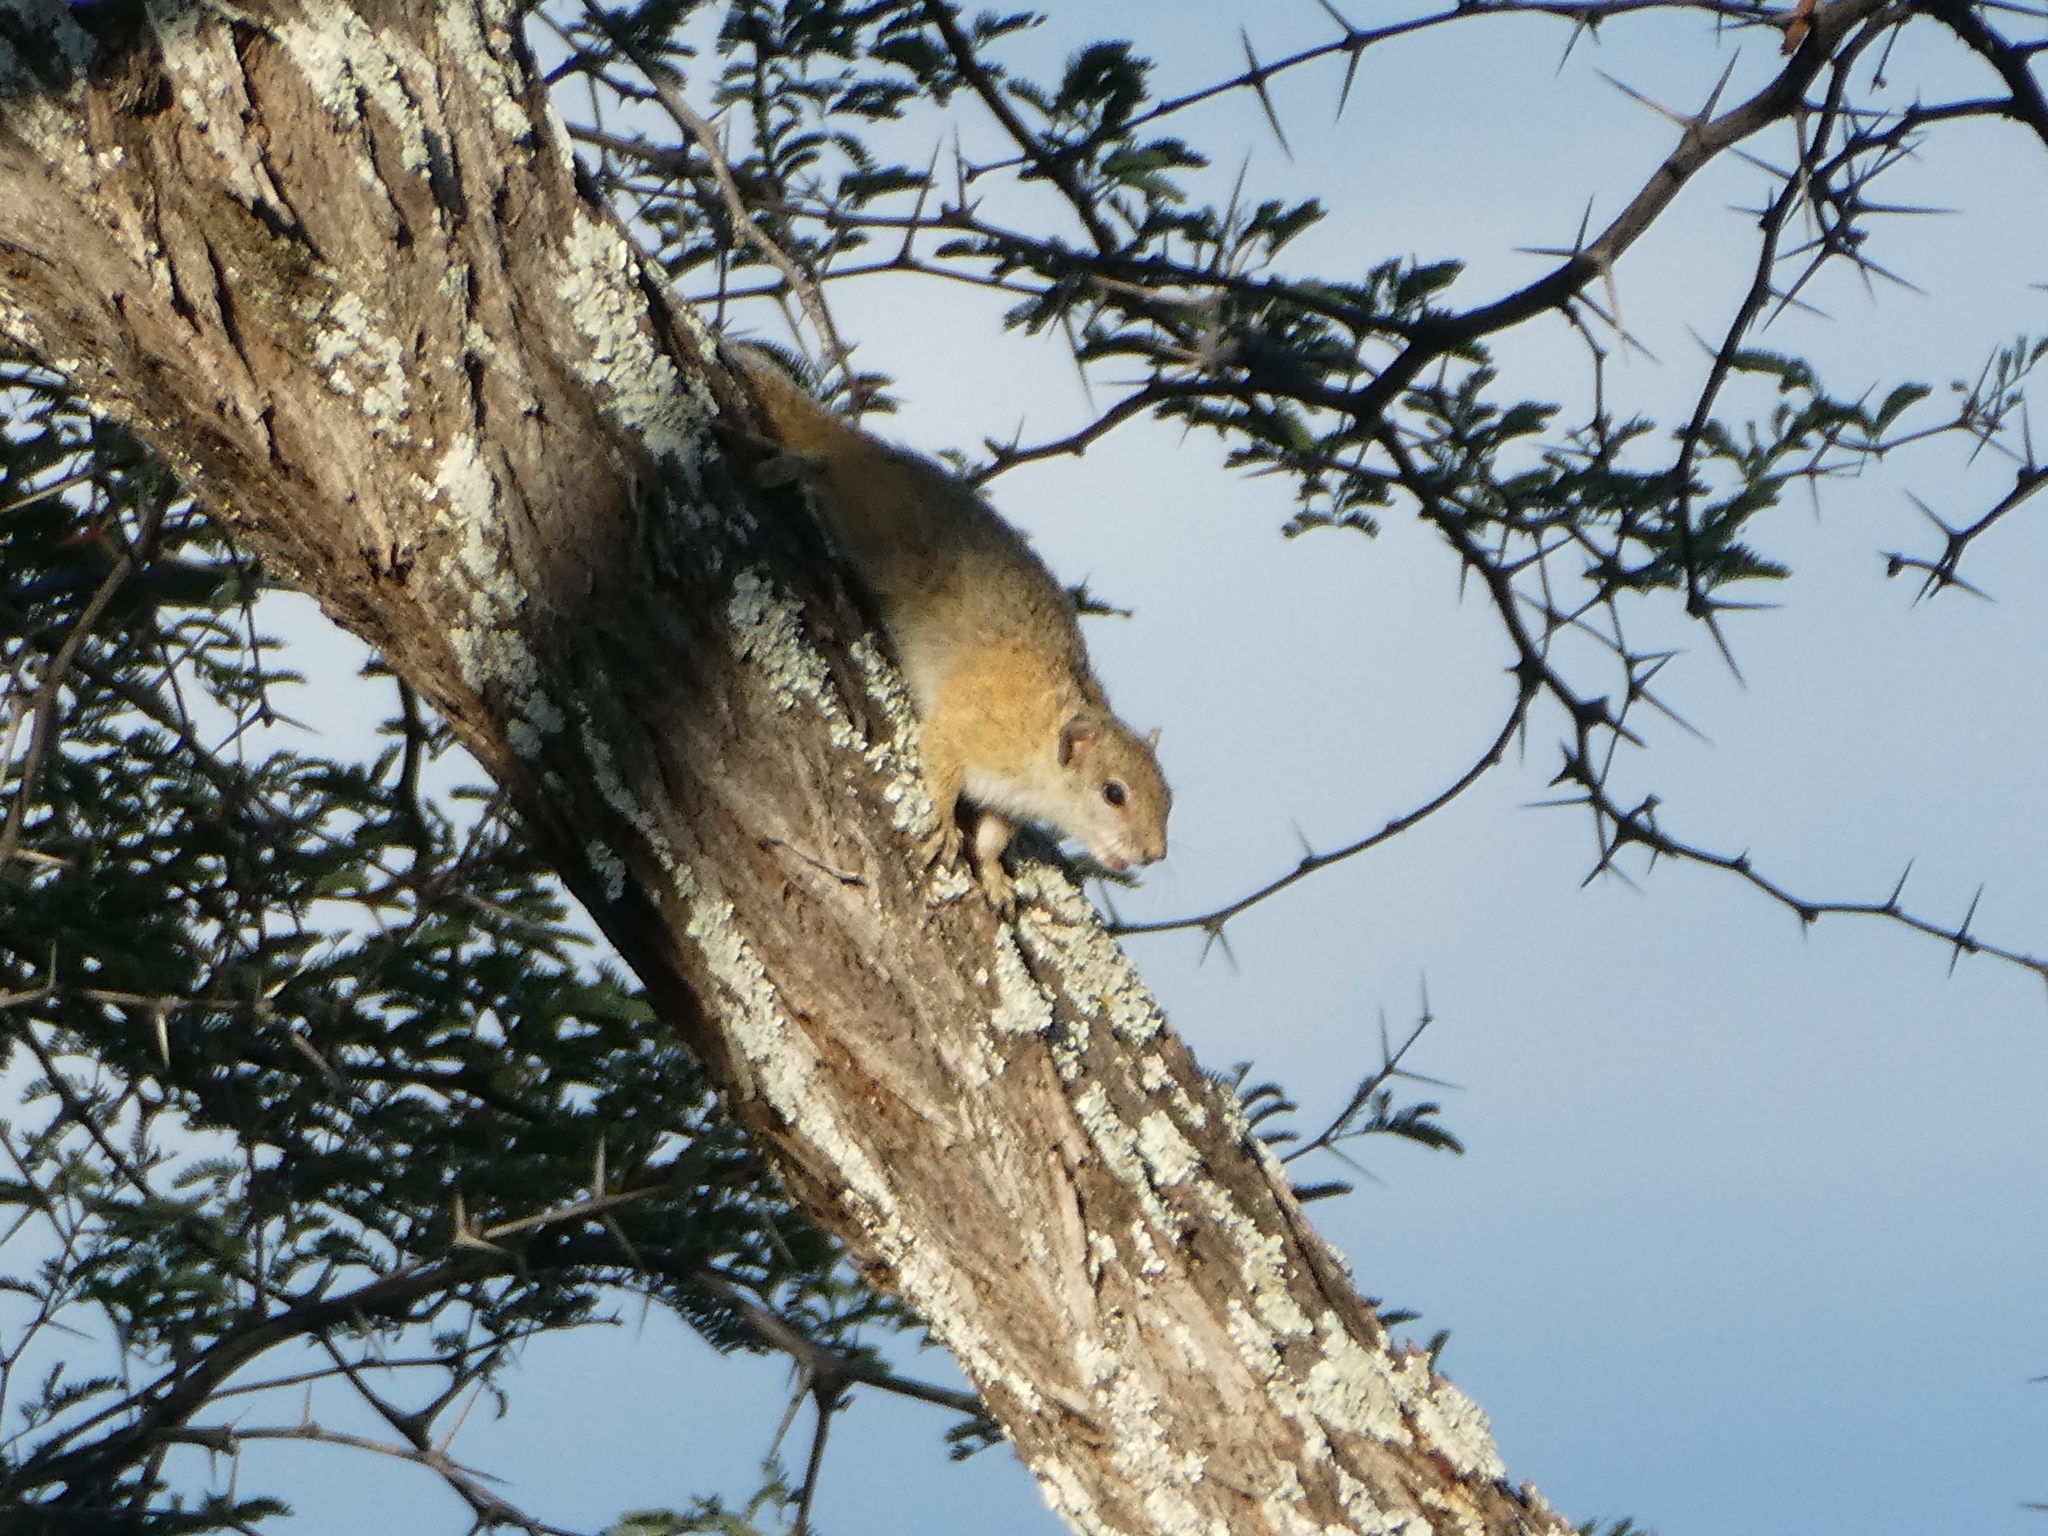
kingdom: Animalia
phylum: Chordata
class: Mammalia
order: Rodentia
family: Sciuridae
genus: Paraxerus
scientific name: Paraxerus cepapi
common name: Smith's bush squirrel
